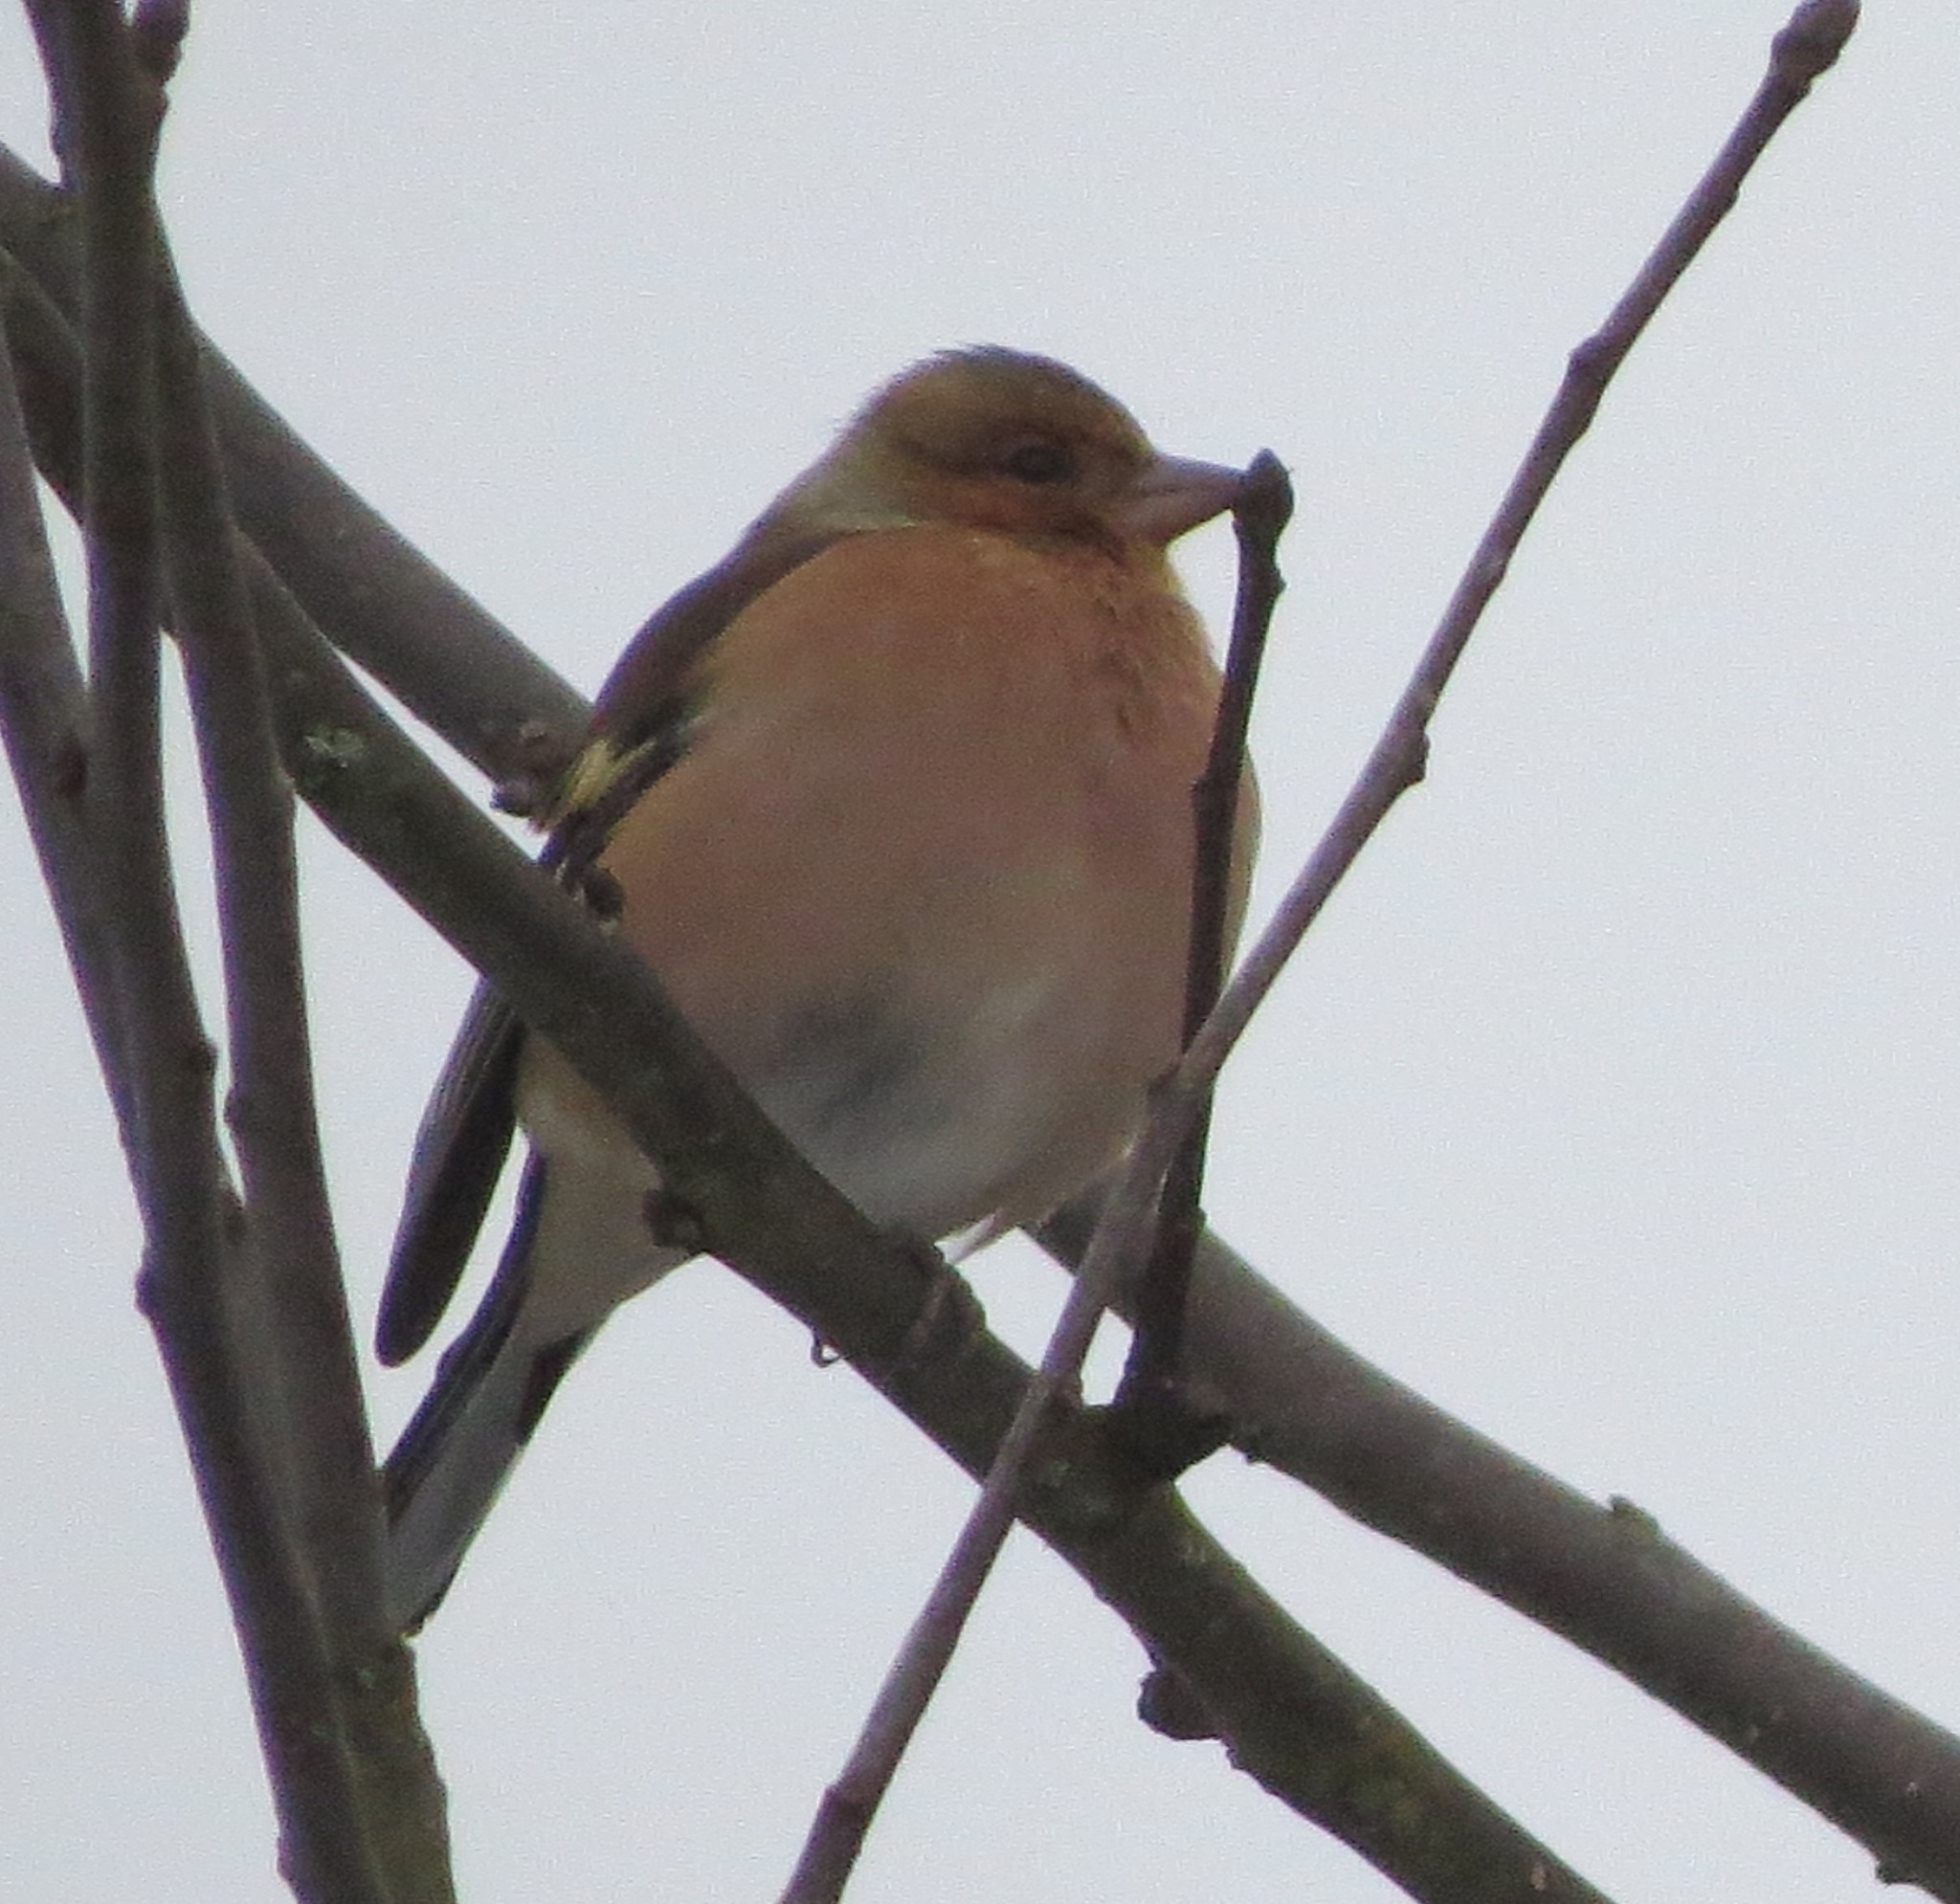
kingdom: Animalia
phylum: Chordata
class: Aves
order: Passeriformes
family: Fringillidae
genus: Fringilla
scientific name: Fringilla coelebs
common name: Common chaffinch
